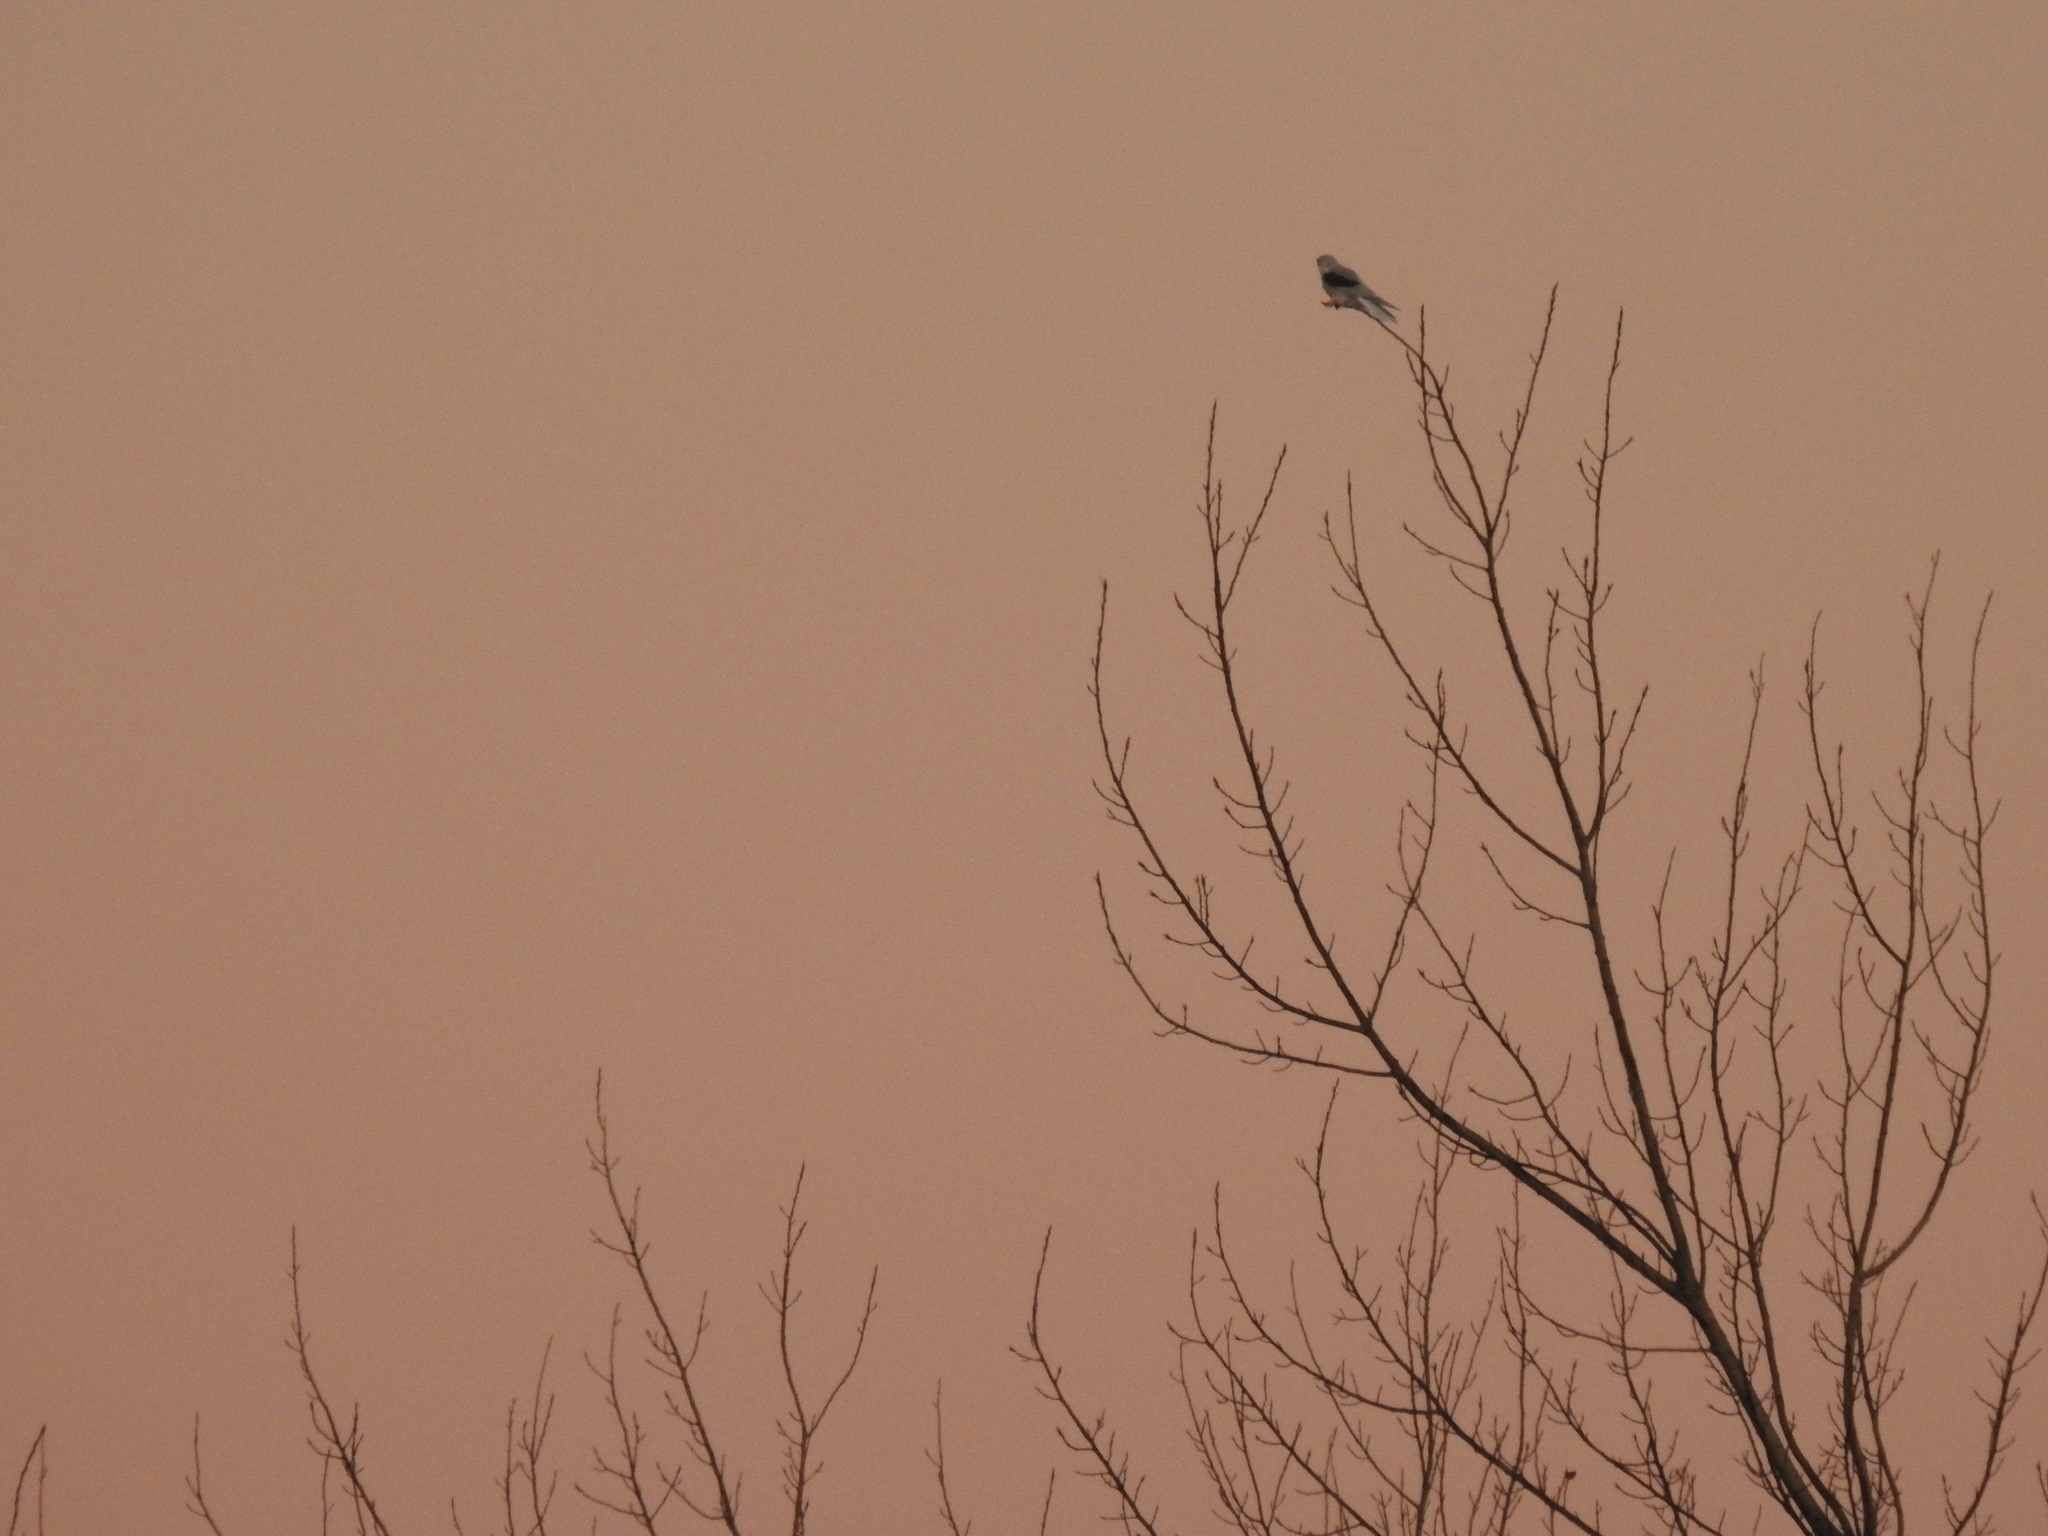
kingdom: Animalia
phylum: Chordata
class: Aves
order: Accipitriformes
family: Accipitridae
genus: Elanus
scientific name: Elanus leucurus
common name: White-tailed kite
